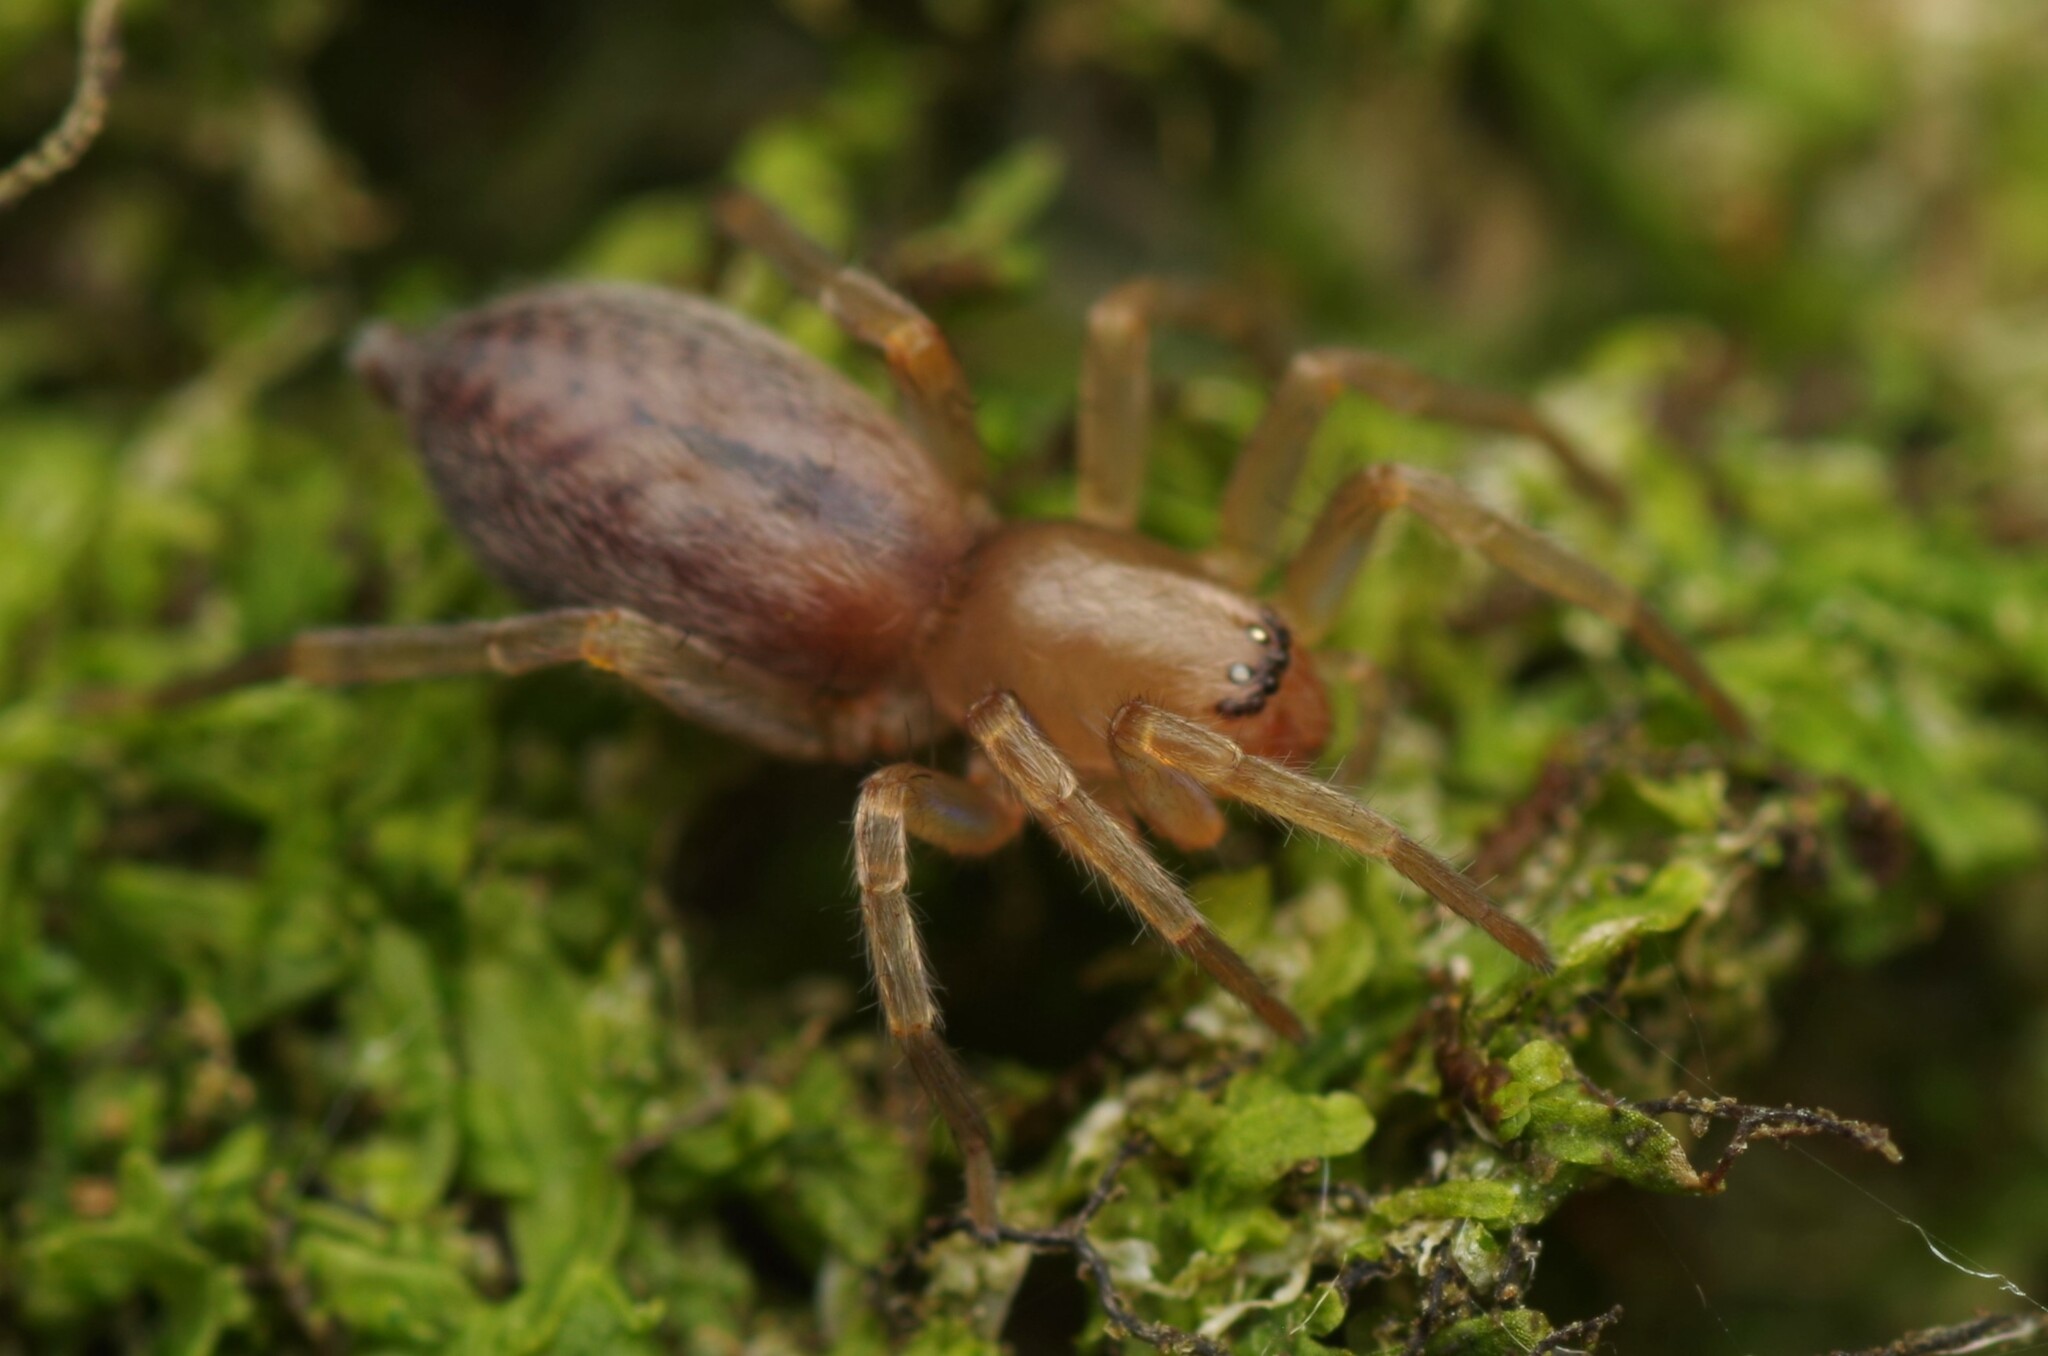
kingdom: Animalia
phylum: Arthropoda
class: Arachnida
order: Araneae
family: Clubionidae
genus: Clubiona
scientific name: Clubiona
